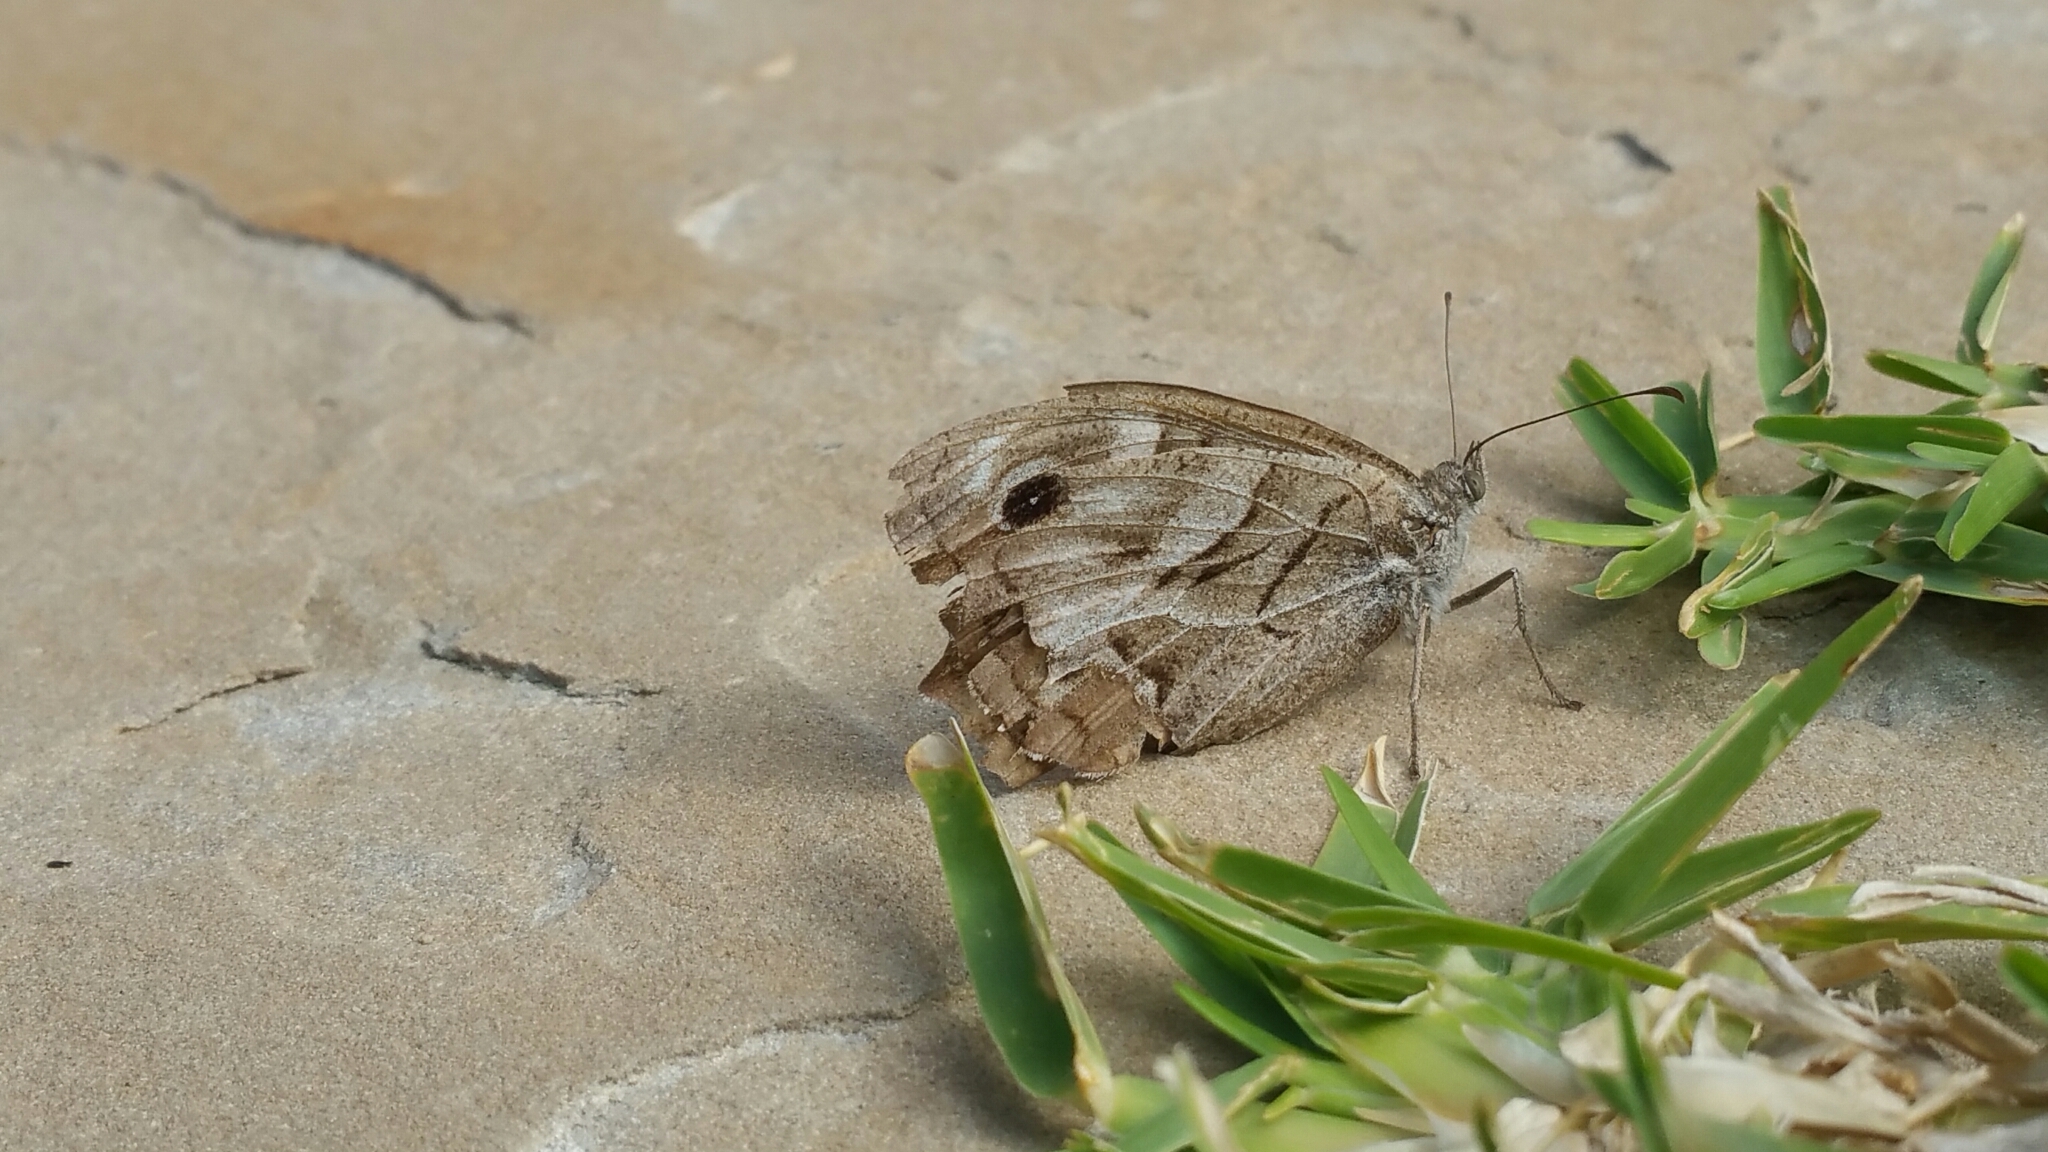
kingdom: Animalia
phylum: Arthropoda
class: Insecta
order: Lepidoptera
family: Nymphalidae
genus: Hipparchia
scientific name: Hipparchia fidia
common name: Striped grayling
